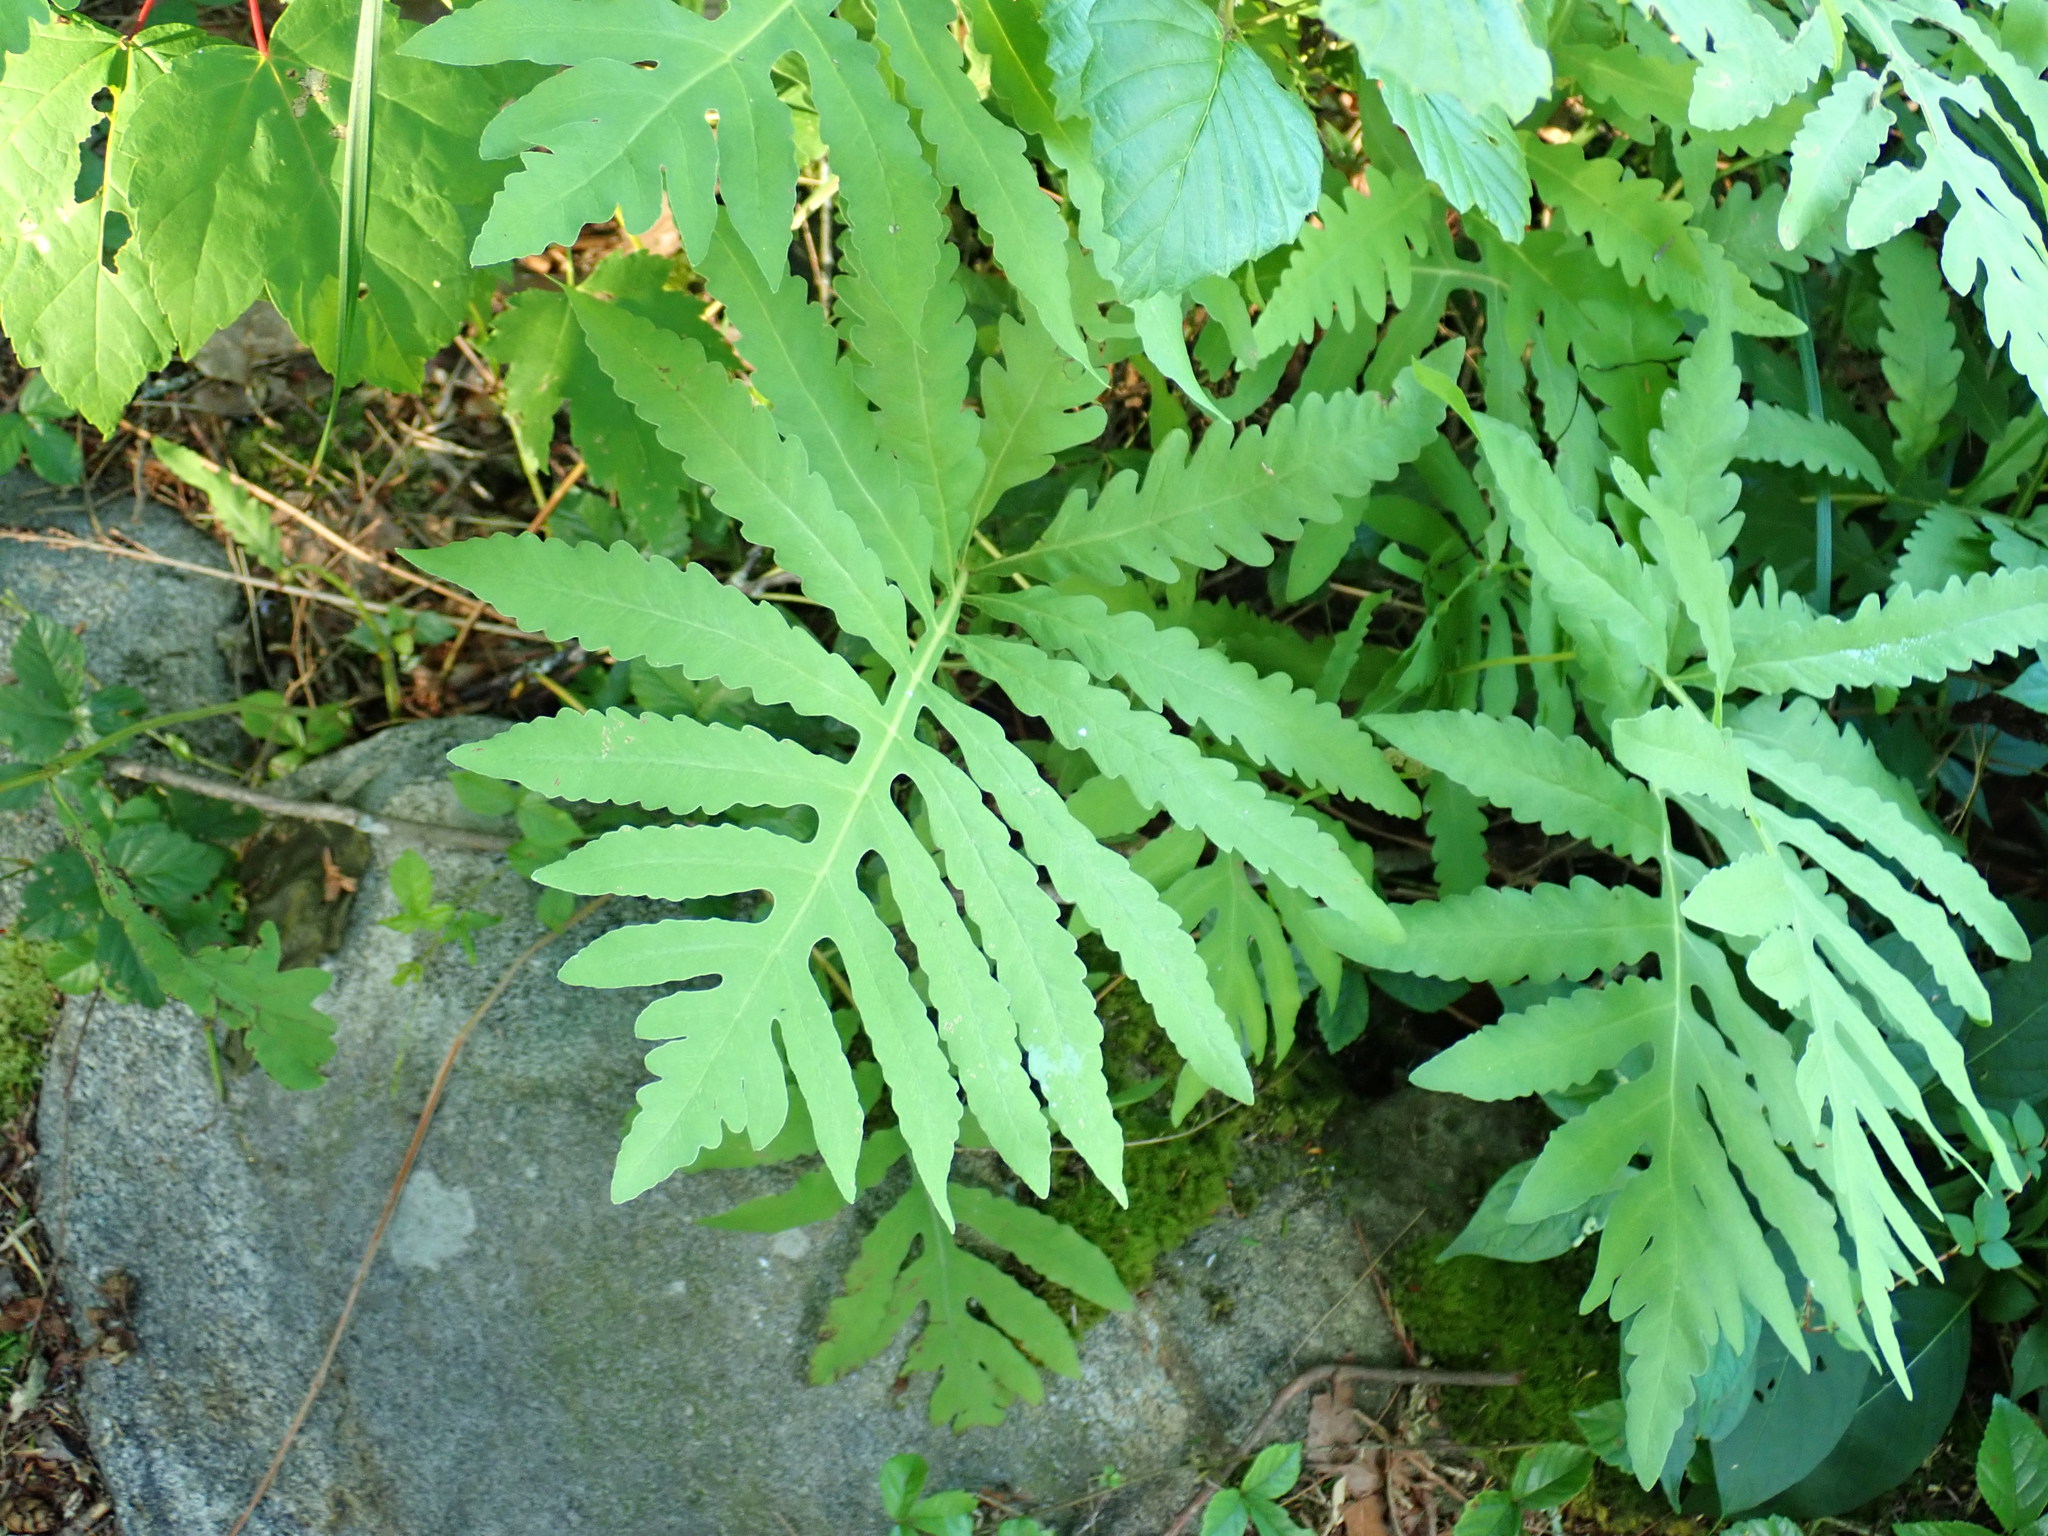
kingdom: Plantae
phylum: Tracheophyta
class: Polypodiopsida
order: Polypodiales
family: Onocleaceae
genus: Onoclea
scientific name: Onoclea sensibilis
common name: Sensitive fern
